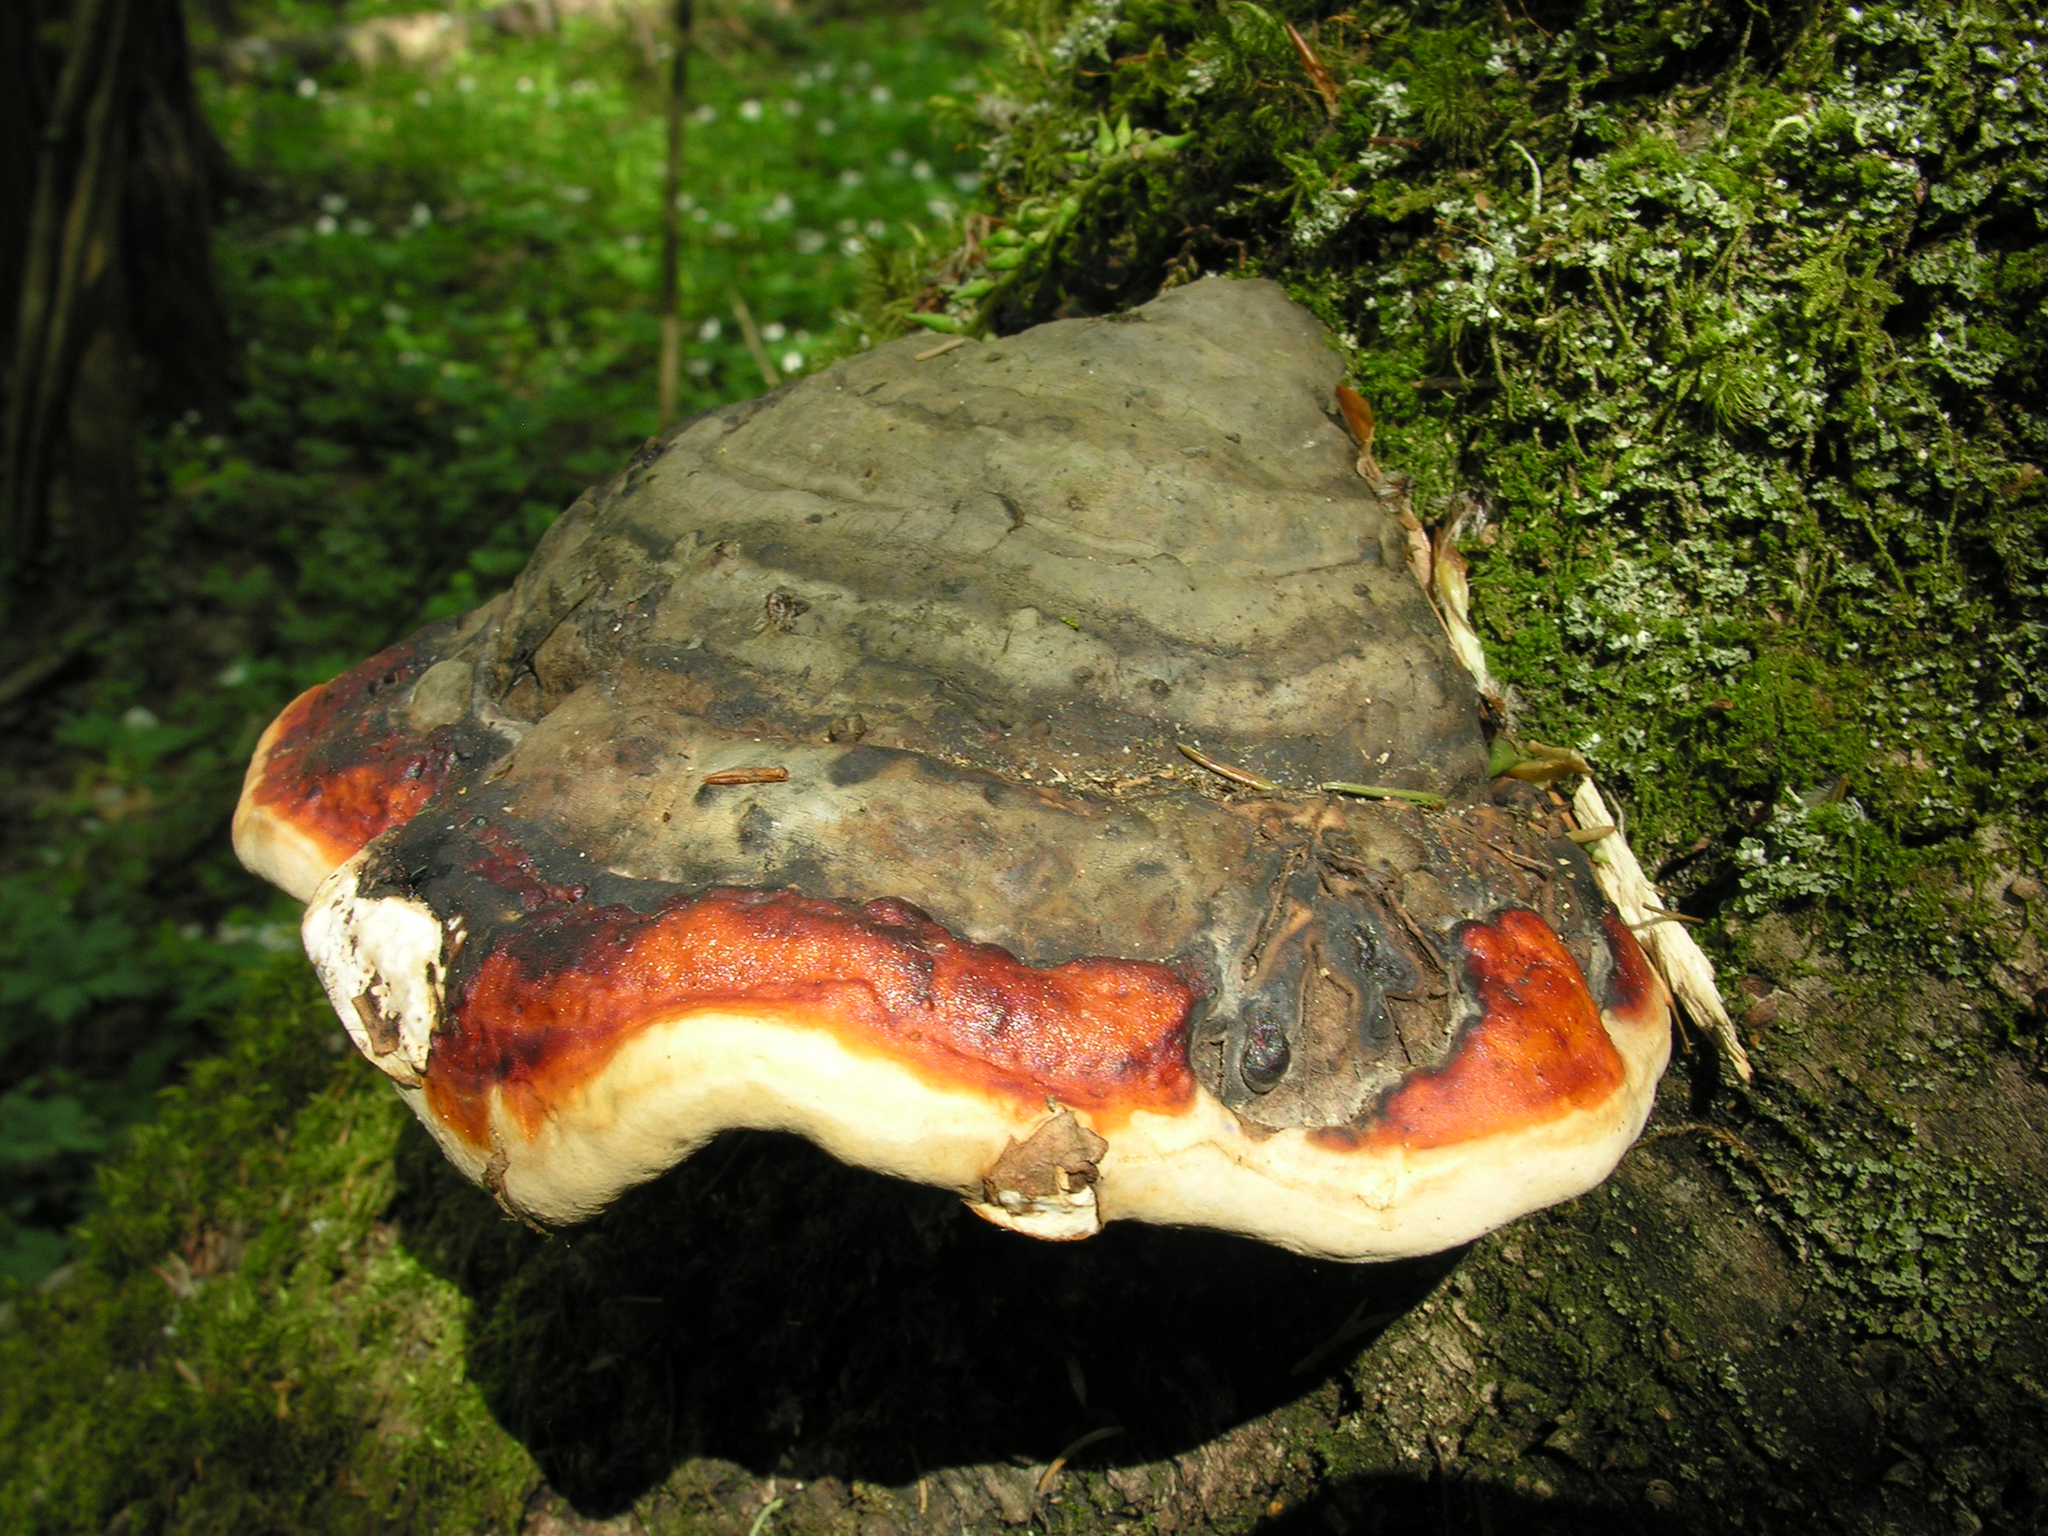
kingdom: Fungi
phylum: Basidiomycota
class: Agaricomycetes
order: Polyporales
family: Fomitopsidaceae
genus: Fomitopsis
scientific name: Fomitopsis pinicola
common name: Red-belted bracket
